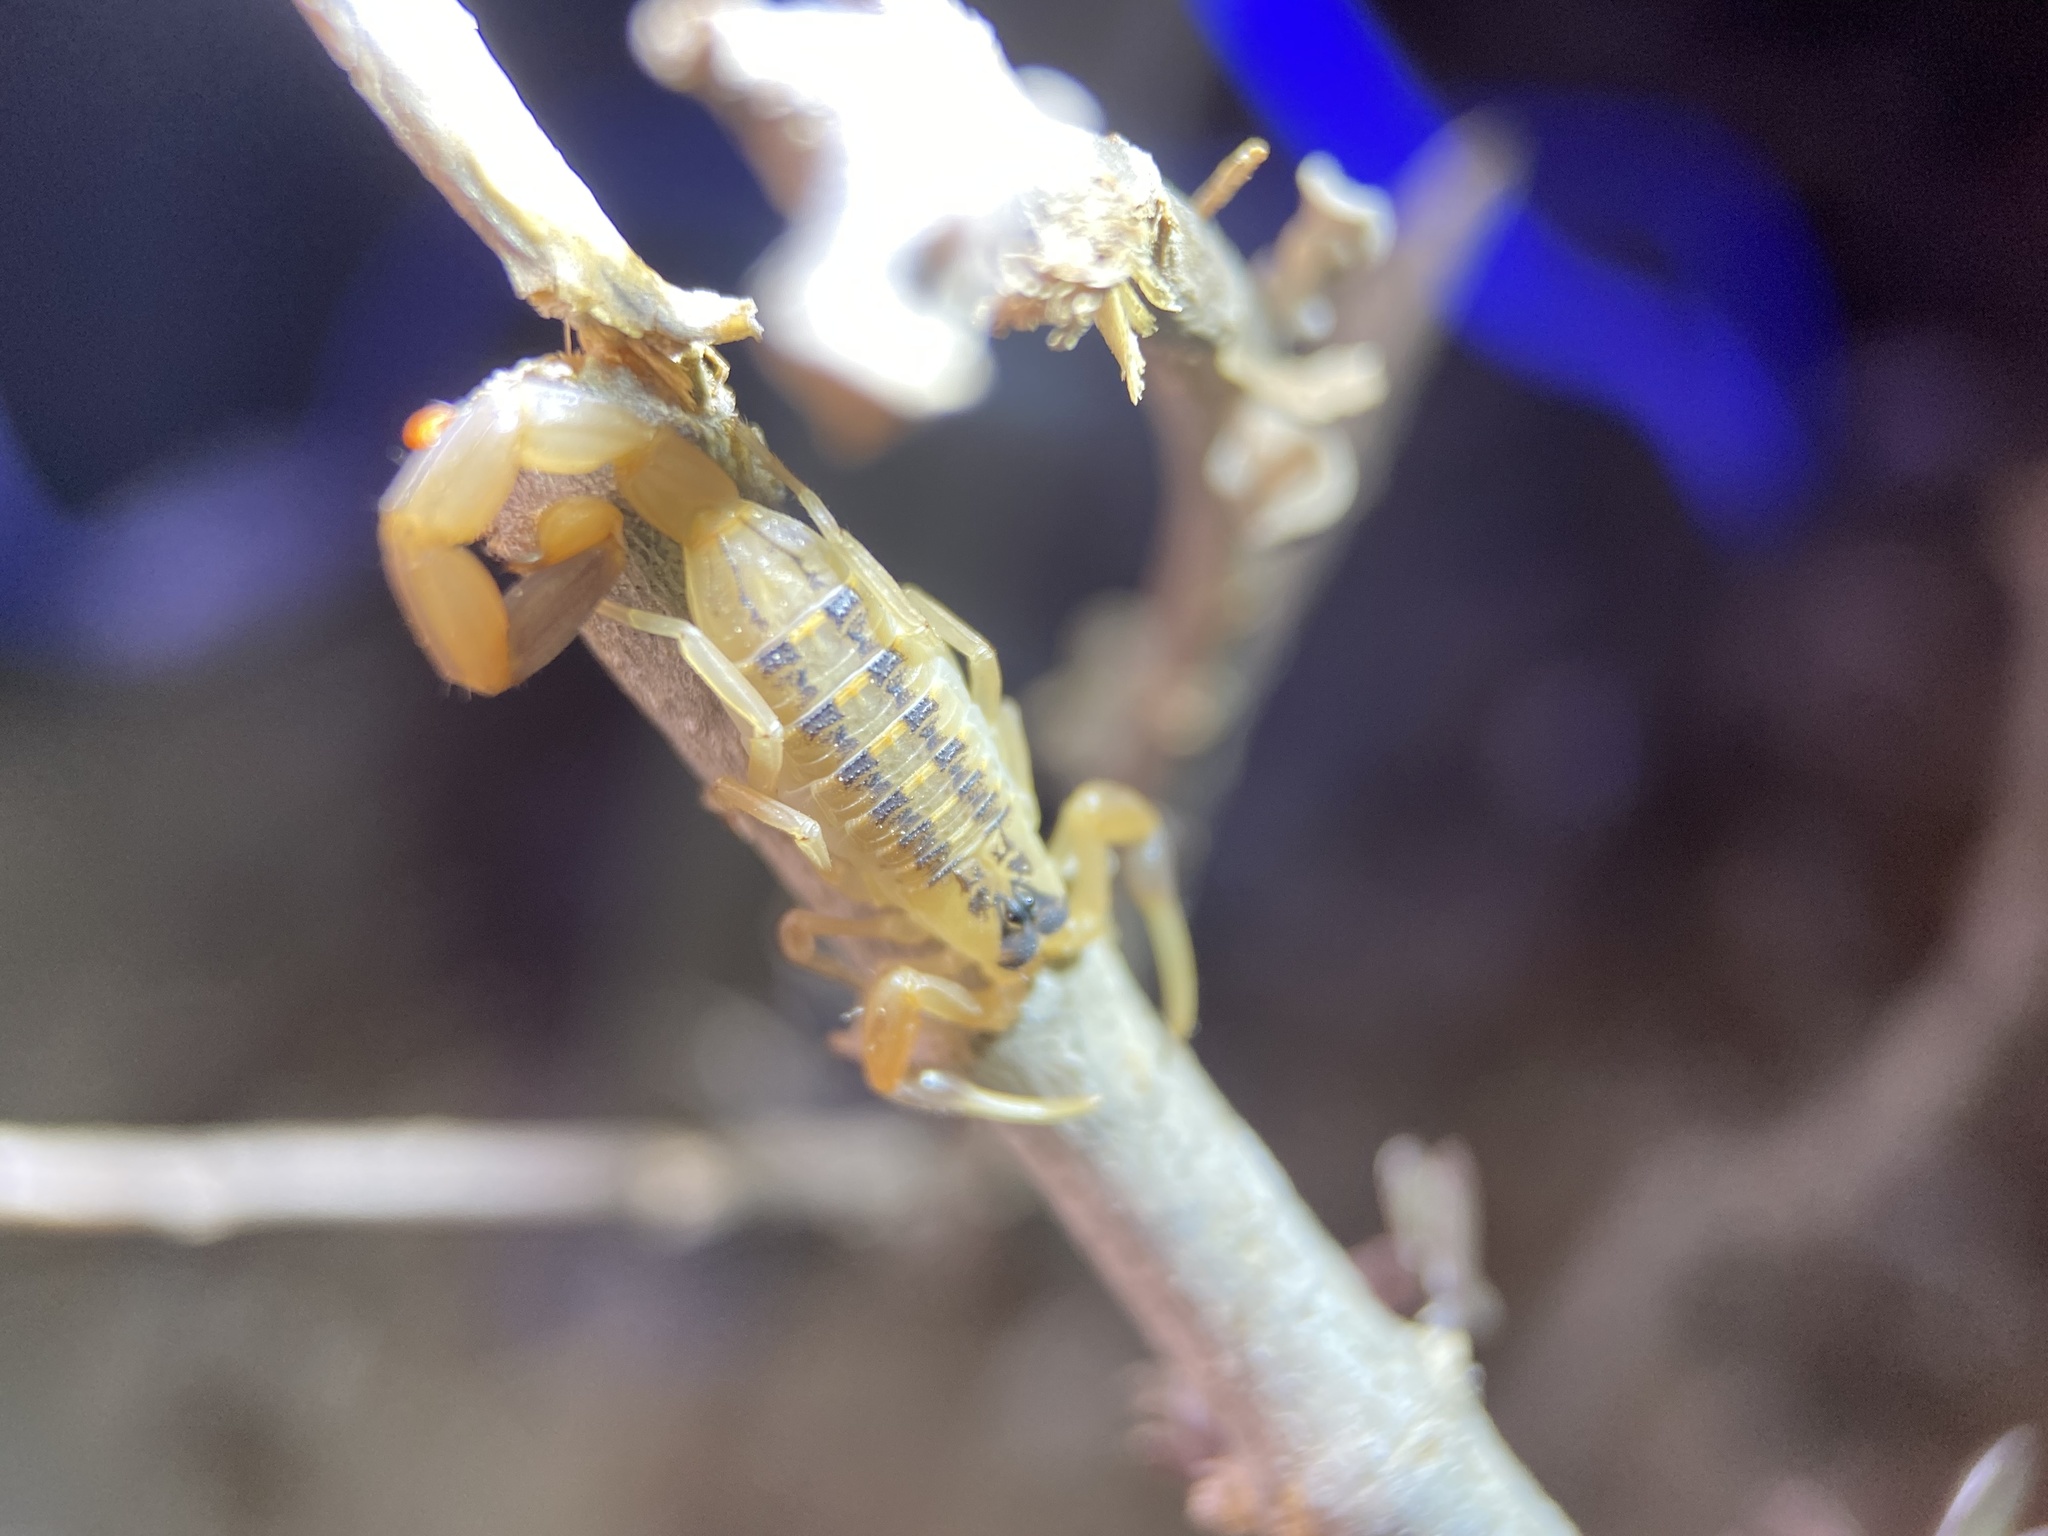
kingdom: Animalia
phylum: Arthropoda
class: Arachnida
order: Scorpiones
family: Buthidae
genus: Centruroides
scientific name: Centruroides vittatus
